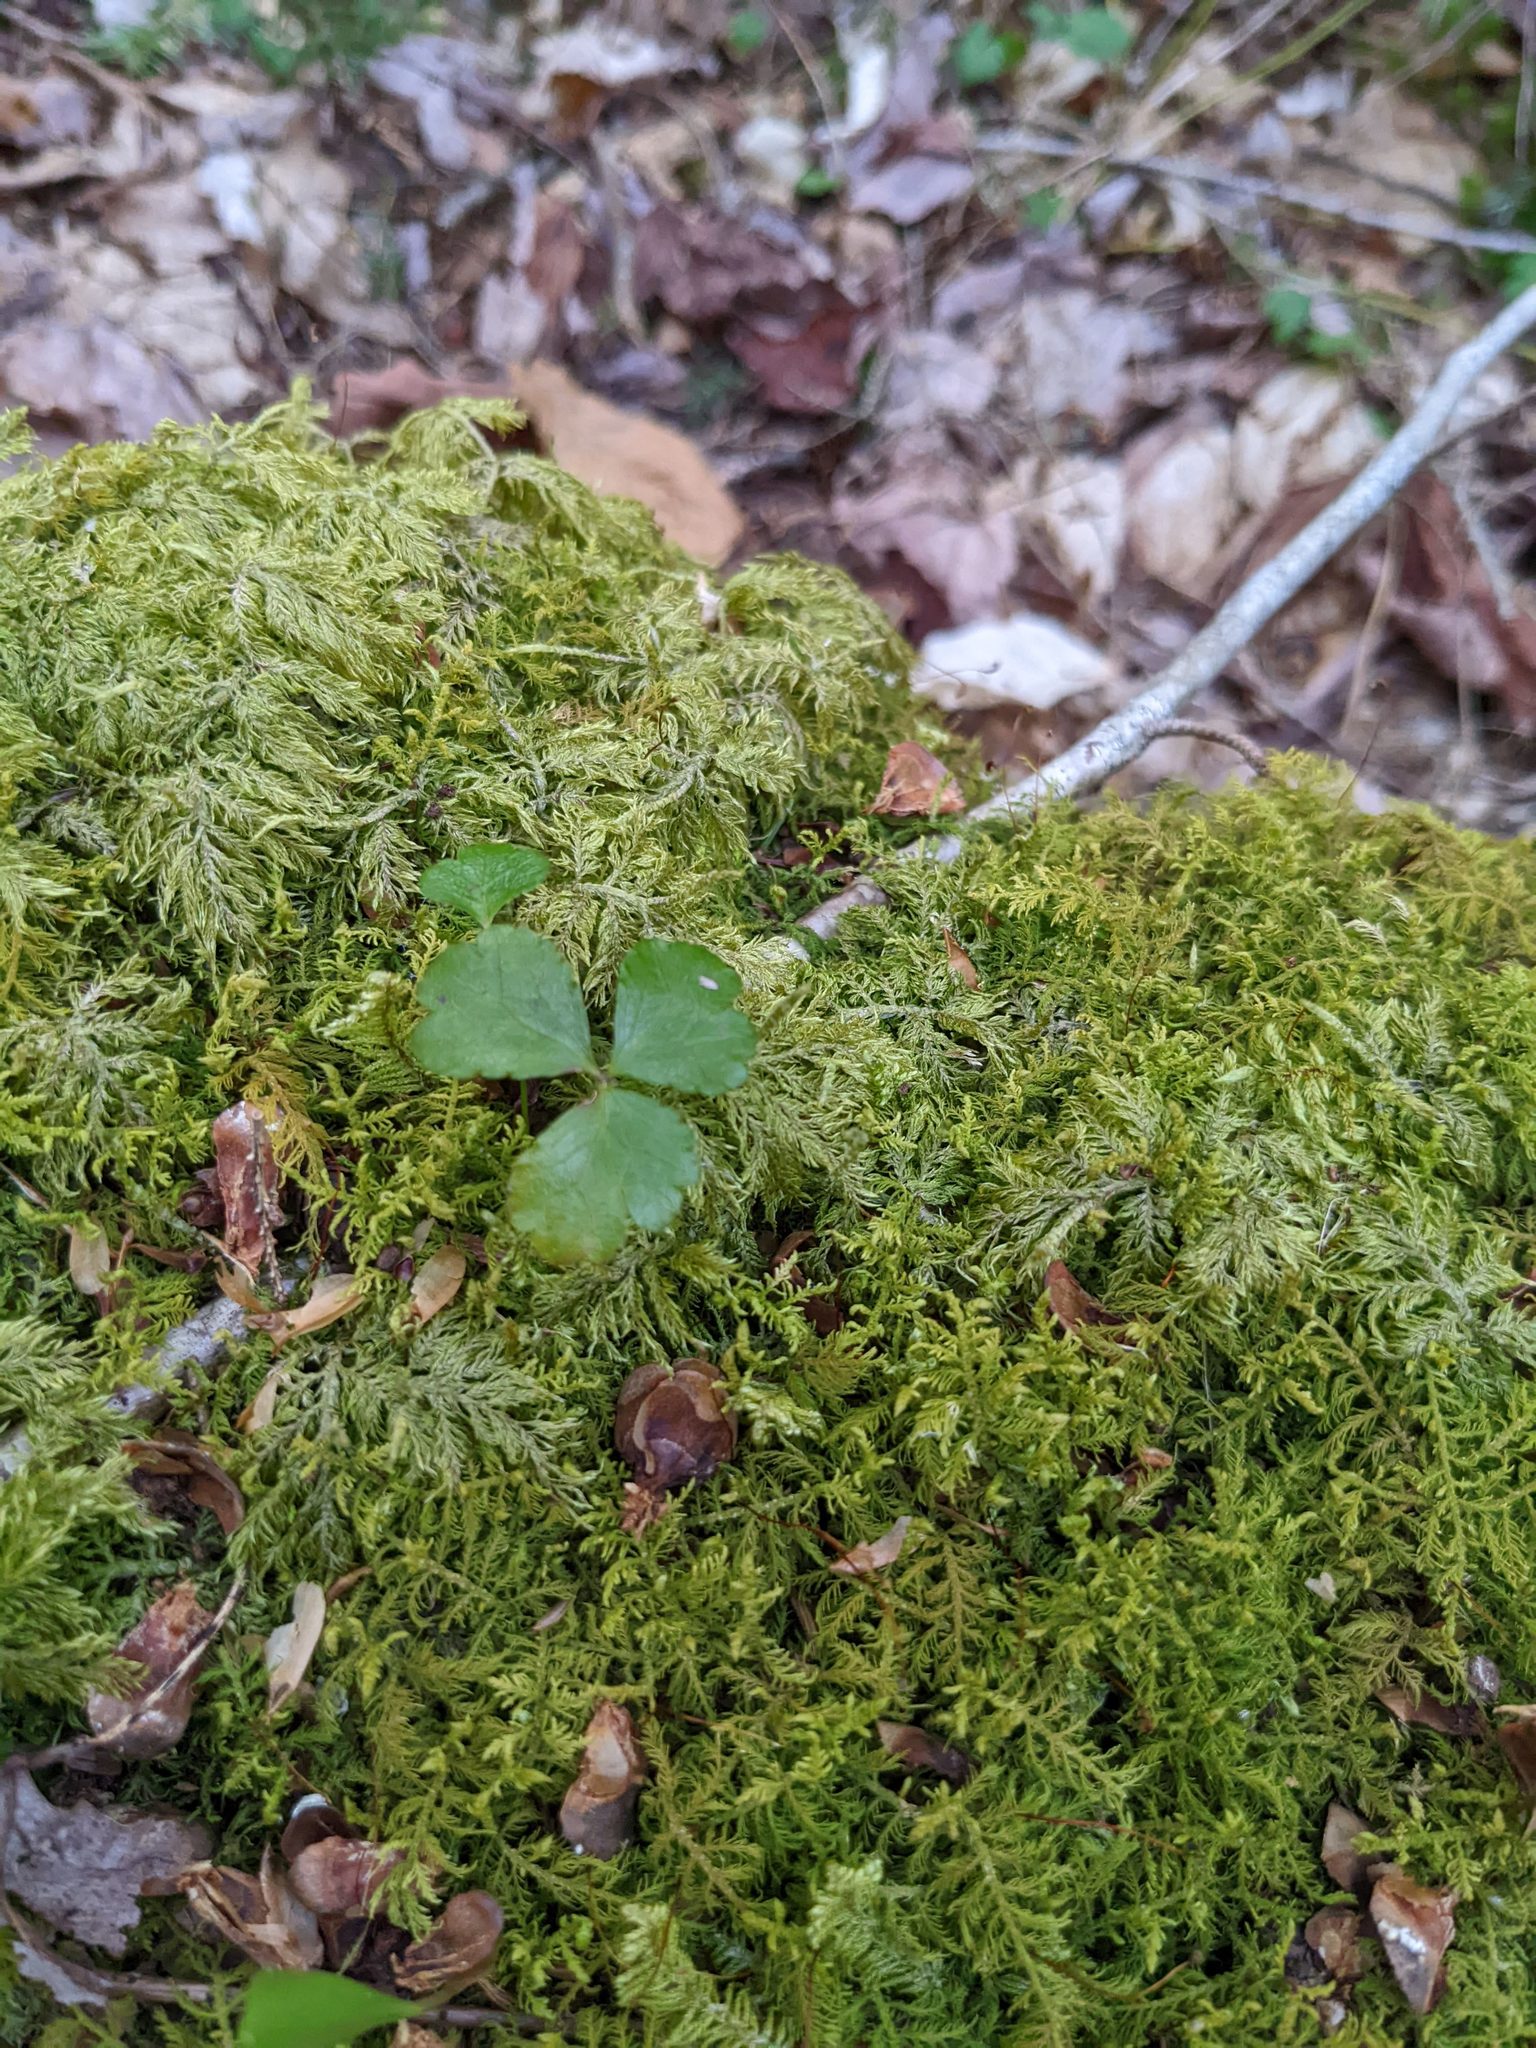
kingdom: Plantae
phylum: Tracheophyta
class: Magnoliopsida
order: Ranunculales
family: Ranunculaceae
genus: Coptis
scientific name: Coptis trifolia
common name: Canker-root
